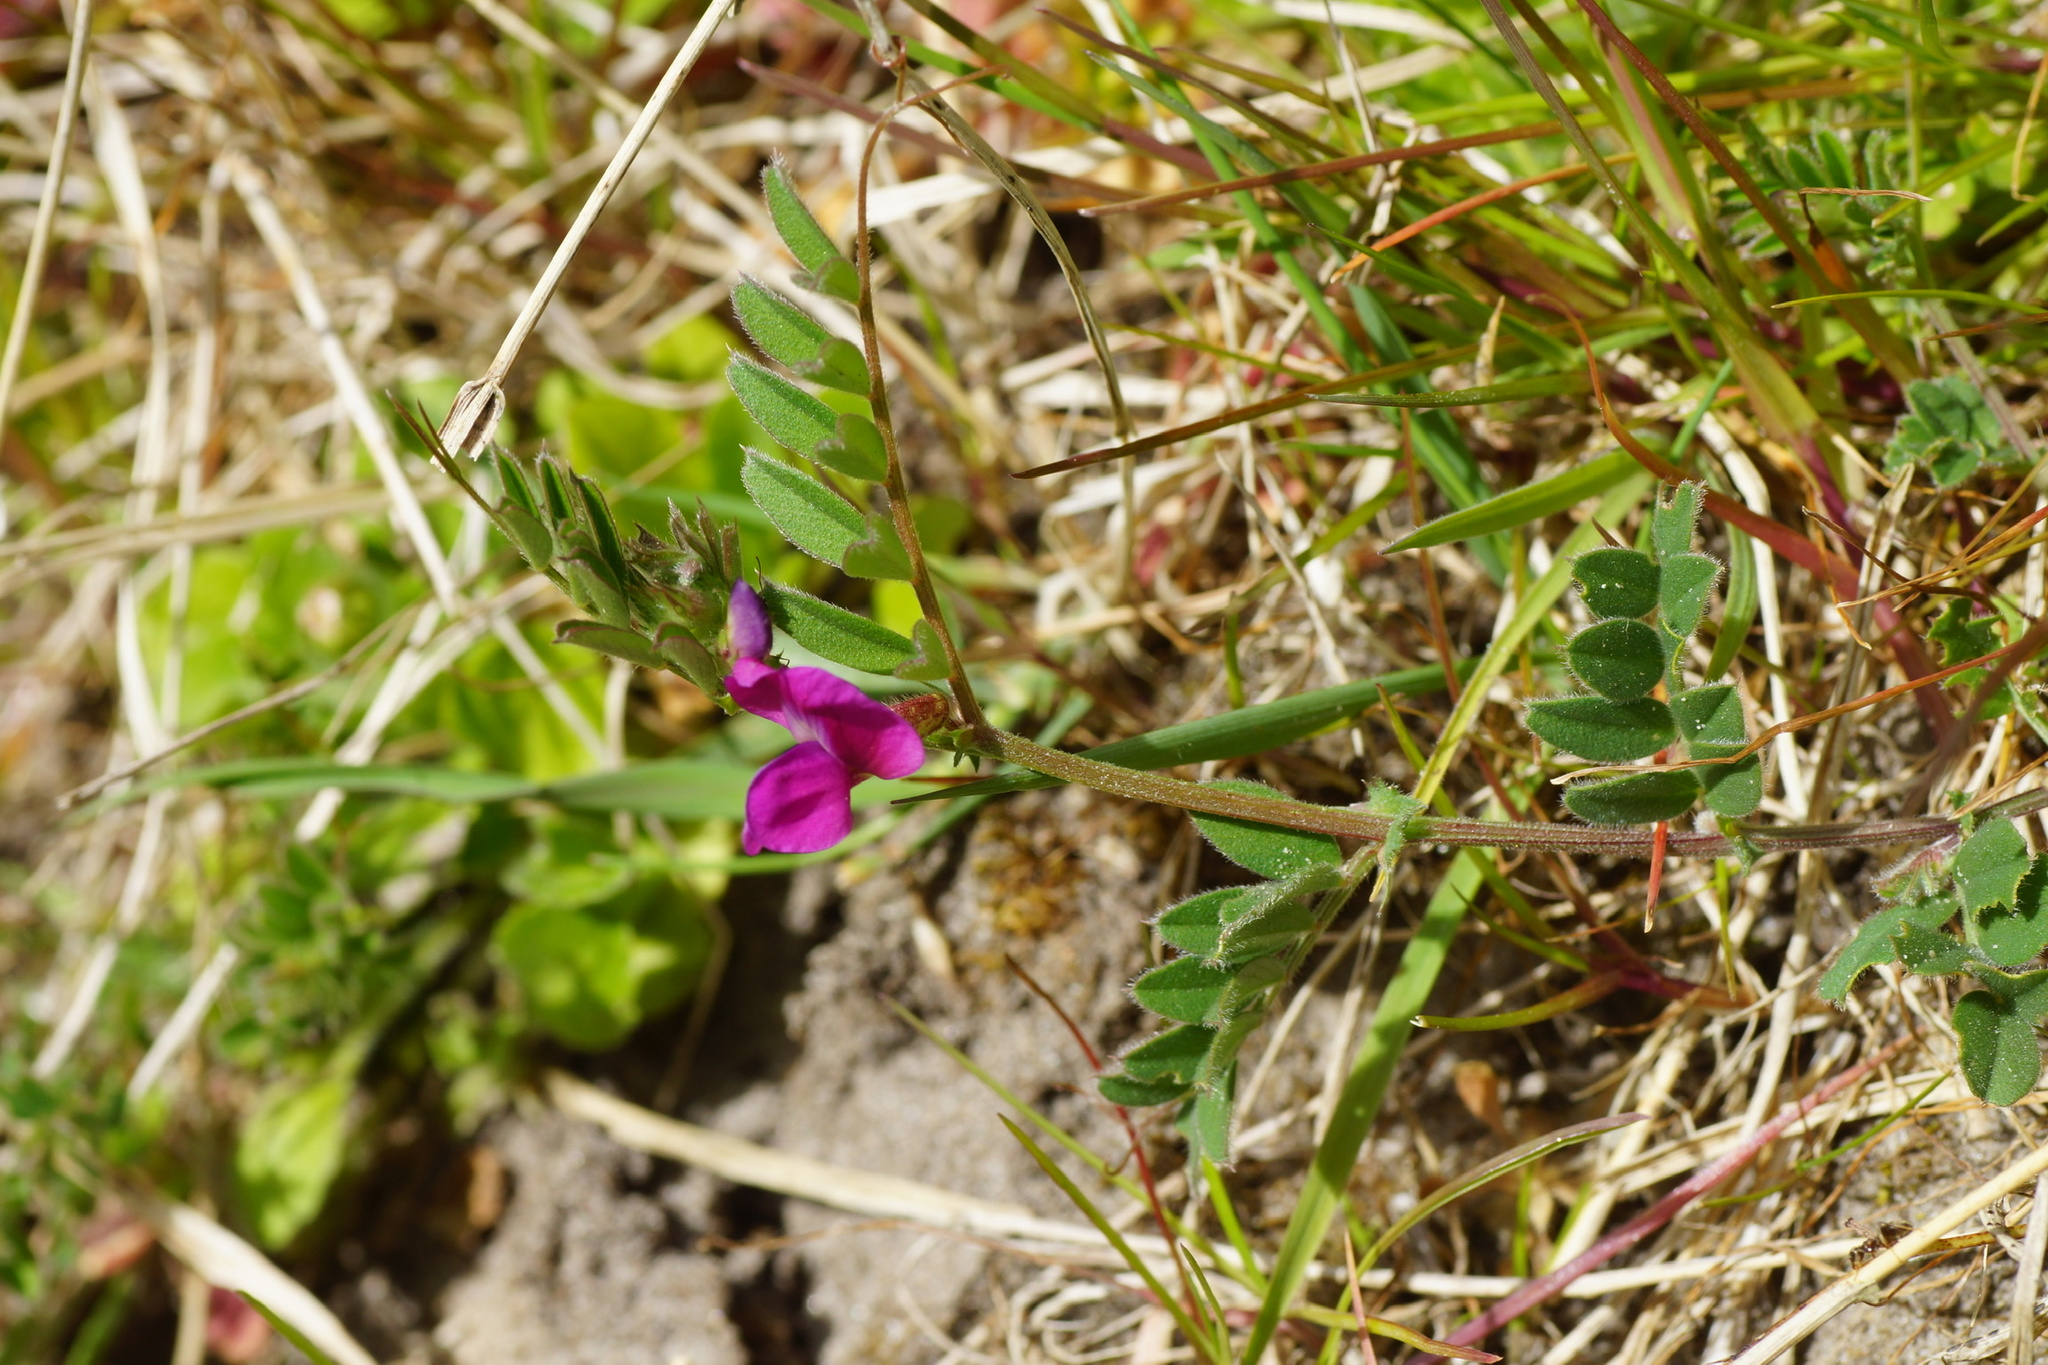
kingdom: Plantae
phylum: Tracheophyta
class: Magnoliopsida
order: Fabales
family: Fabaceae
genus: Vicia
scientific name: Vicia sativa
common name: Garden vetch
